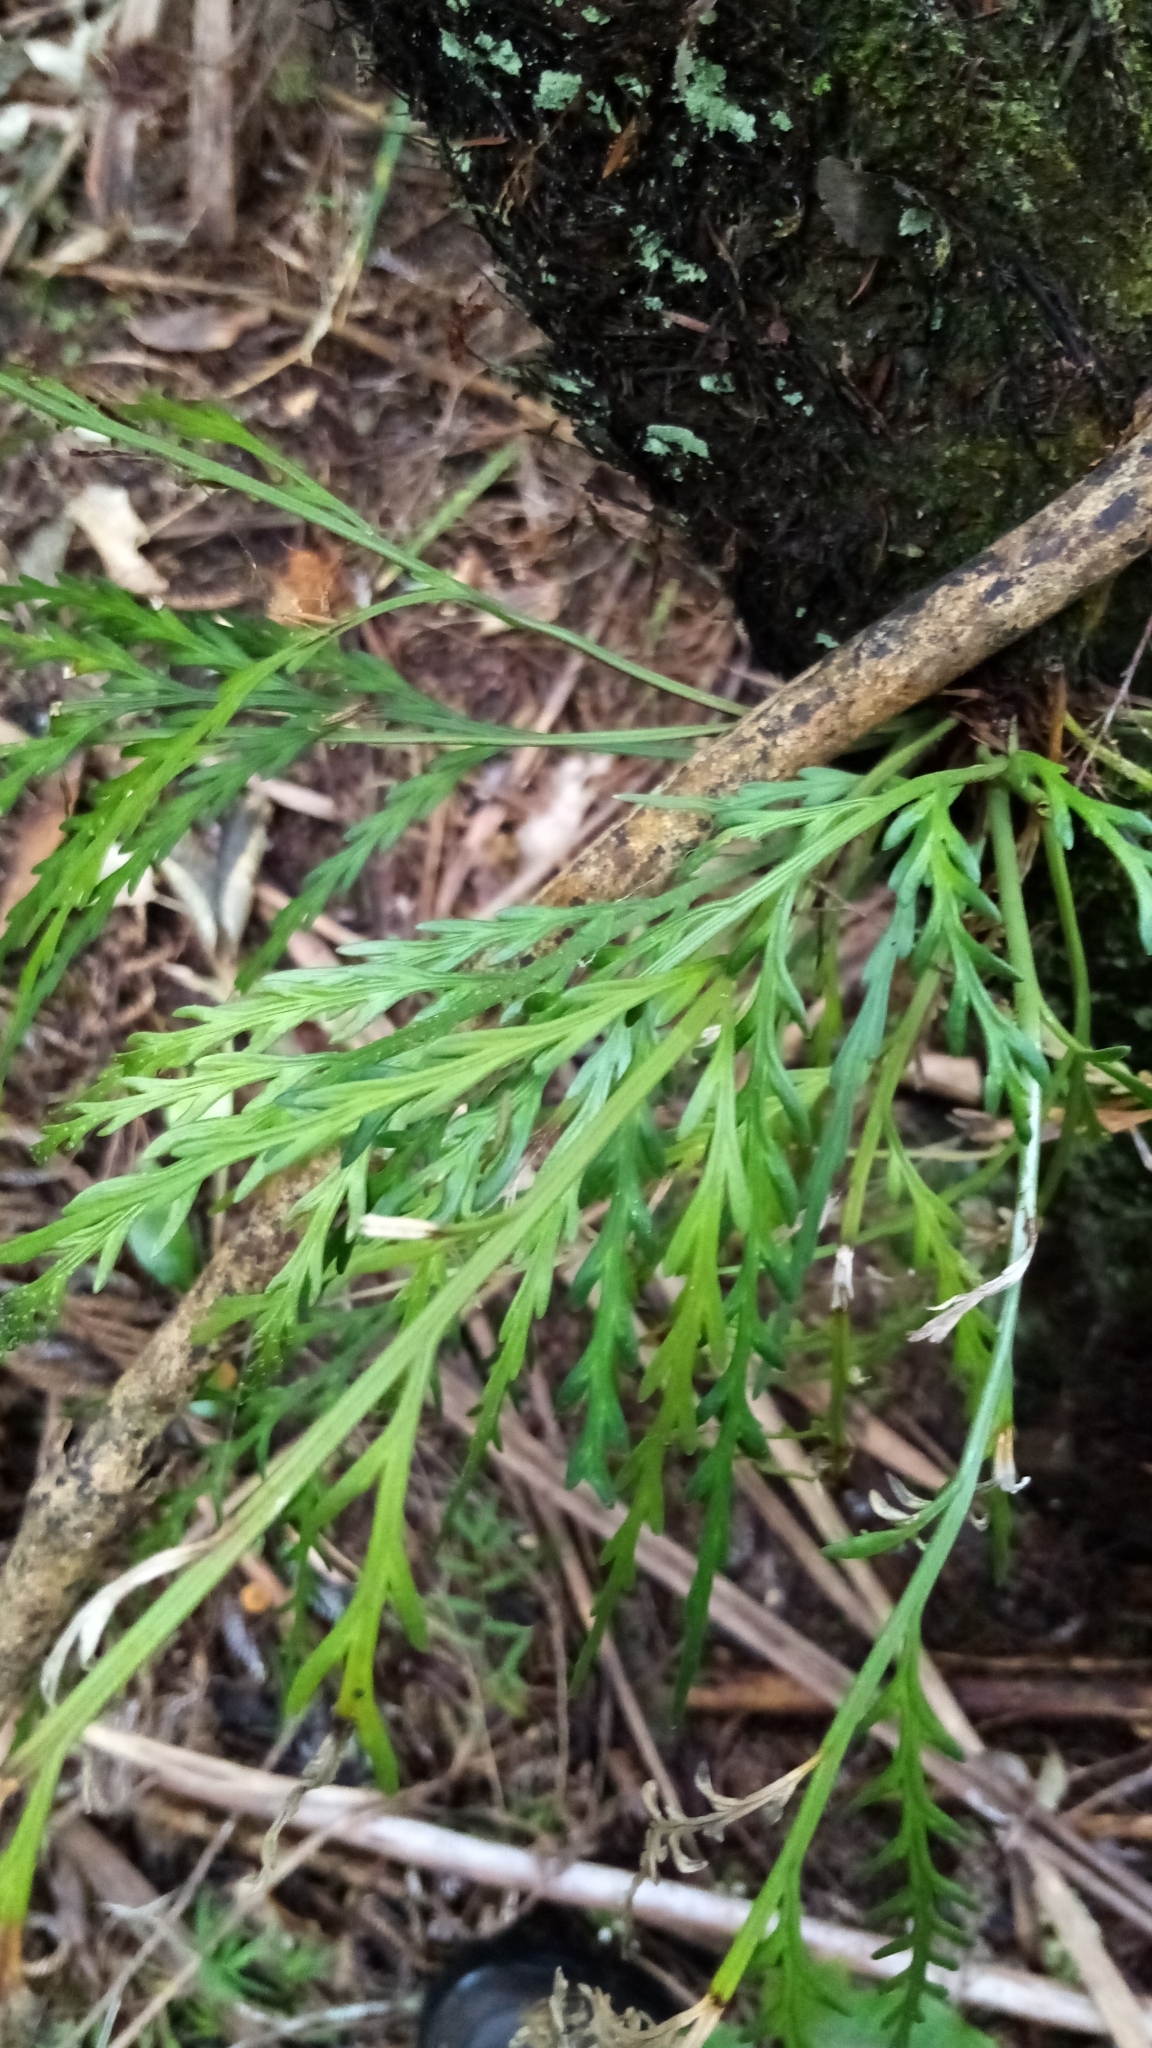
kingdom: Plantae
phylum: Tracheophyta
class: Polypodiopsida
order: Polypodiales
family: Aspleniaceae
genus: Asplenium
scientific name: Asplenium flaccidum
